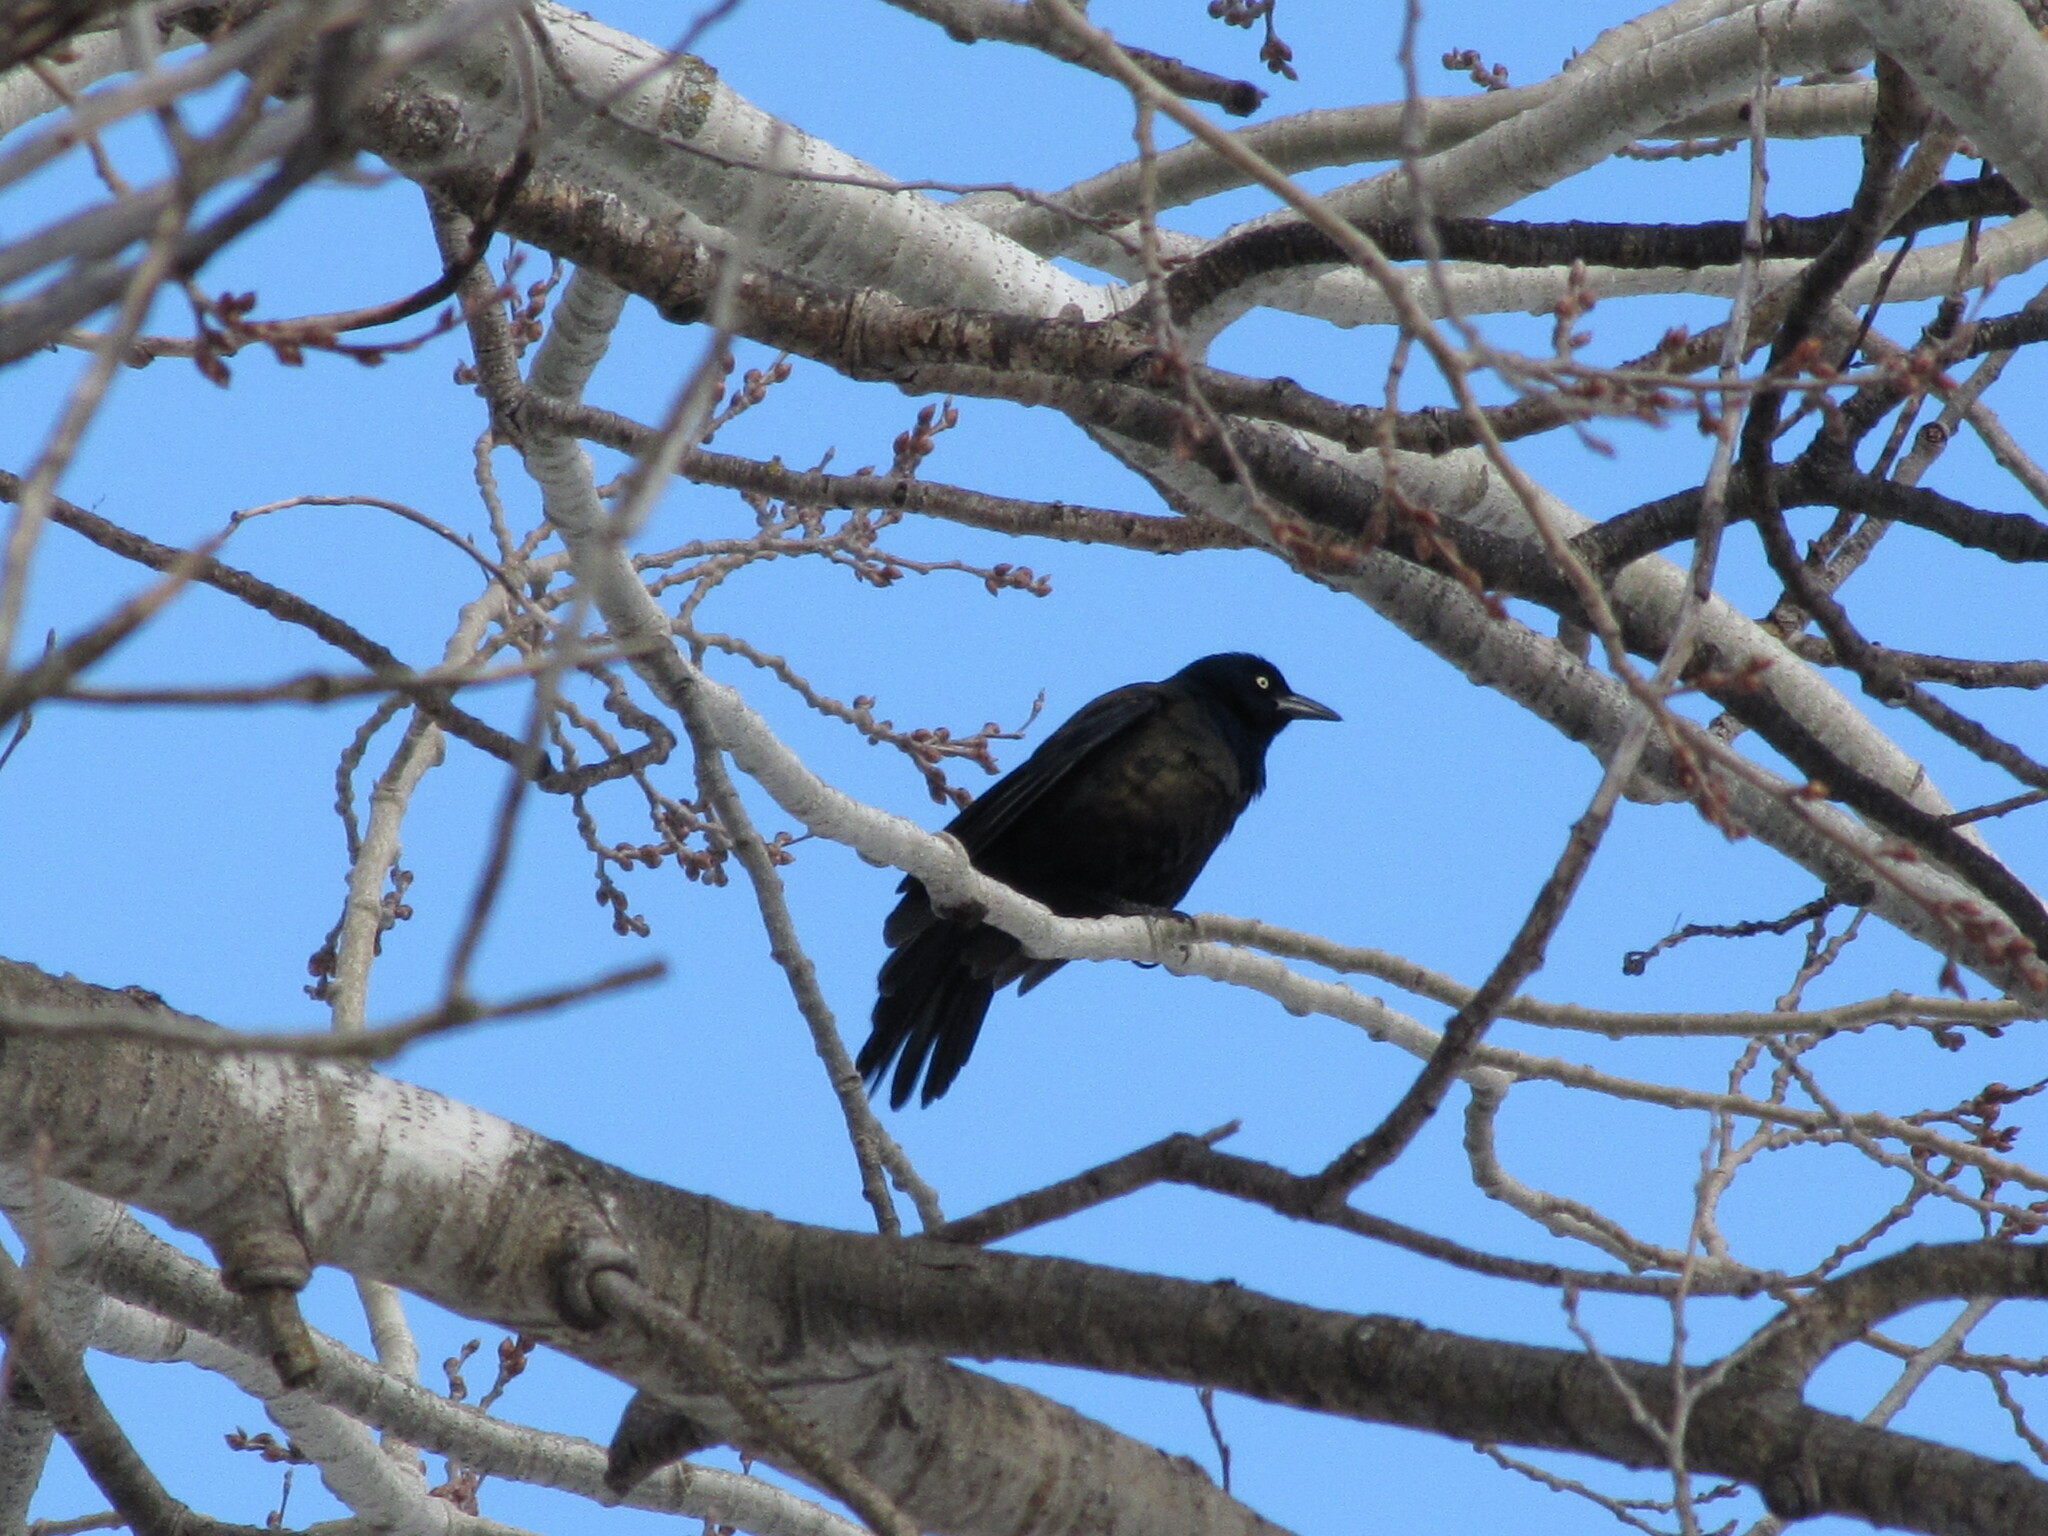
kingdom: Animalia
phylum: Chordata
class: Aves
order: Passeriformes
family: Icteridae
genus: Quiscalus
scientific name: Quiscalus quiscula
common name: Common grackle
